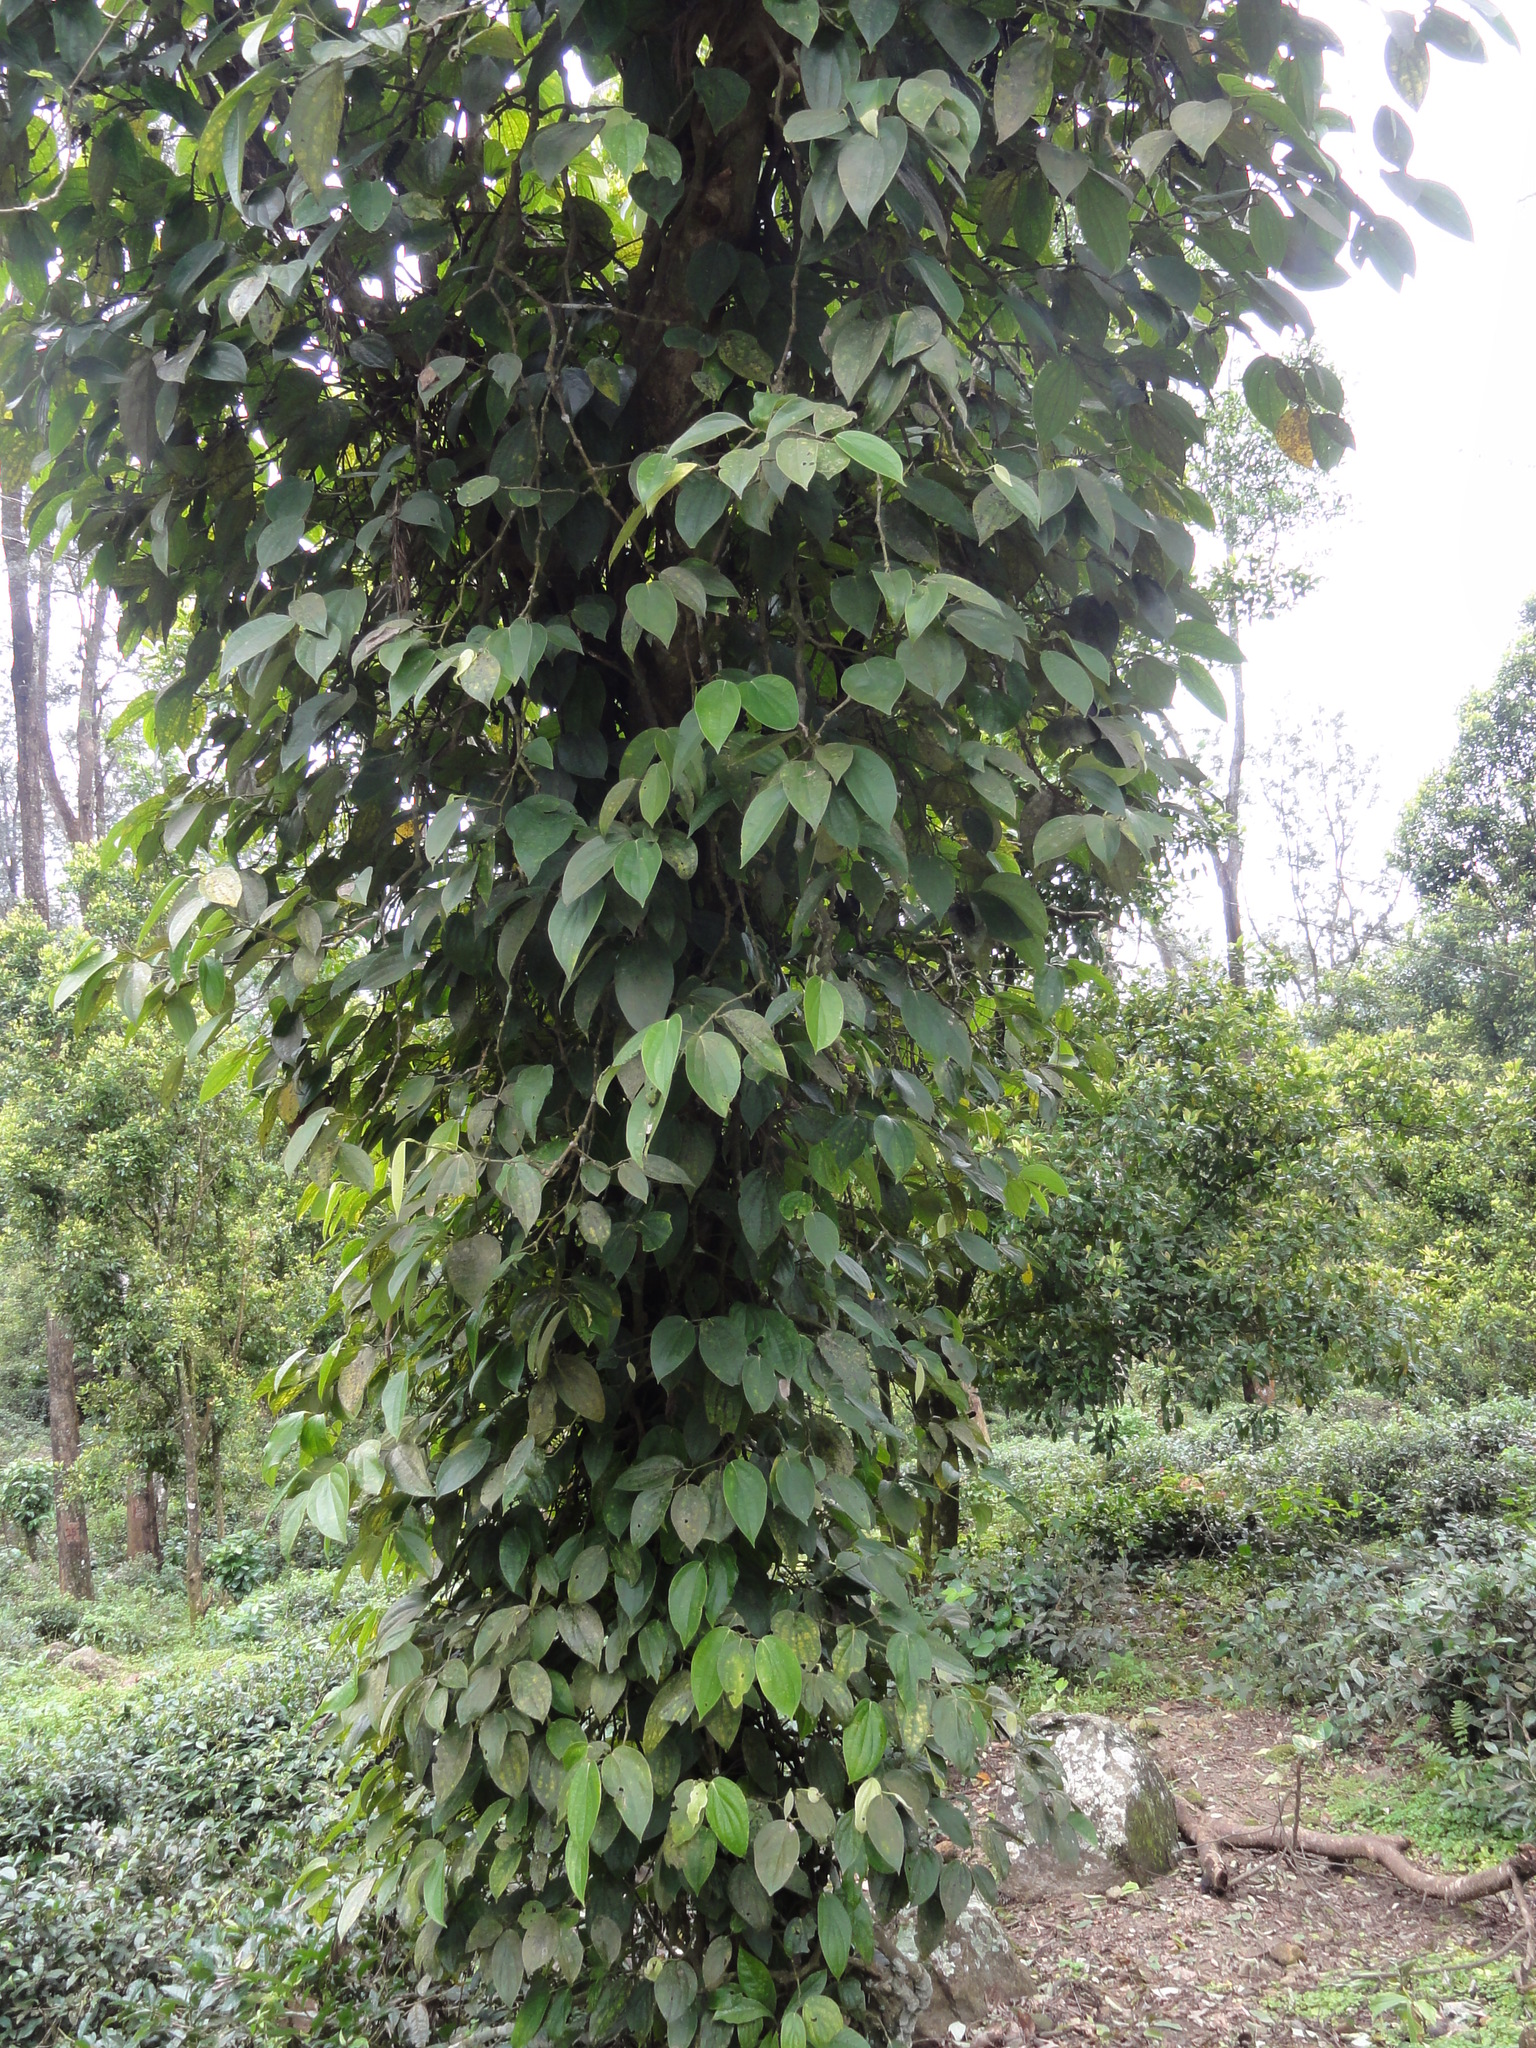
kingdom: Plantae
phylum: Tracheophyta
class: Magnoliopsida
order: Piperales
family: Piperaceae
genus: Piper
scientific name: Piper nigrum
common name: Black pepper
